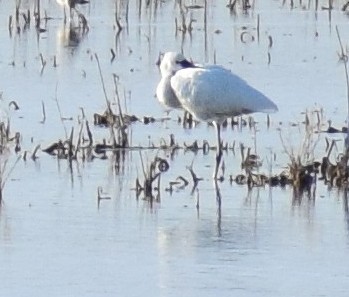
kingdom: Animalia
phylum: Chordata
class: Aves
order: Pelecaniformes
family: Threskiornithidae
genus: Platalea
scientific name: Platalea leucorodia
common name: Eurasian spoonbill
